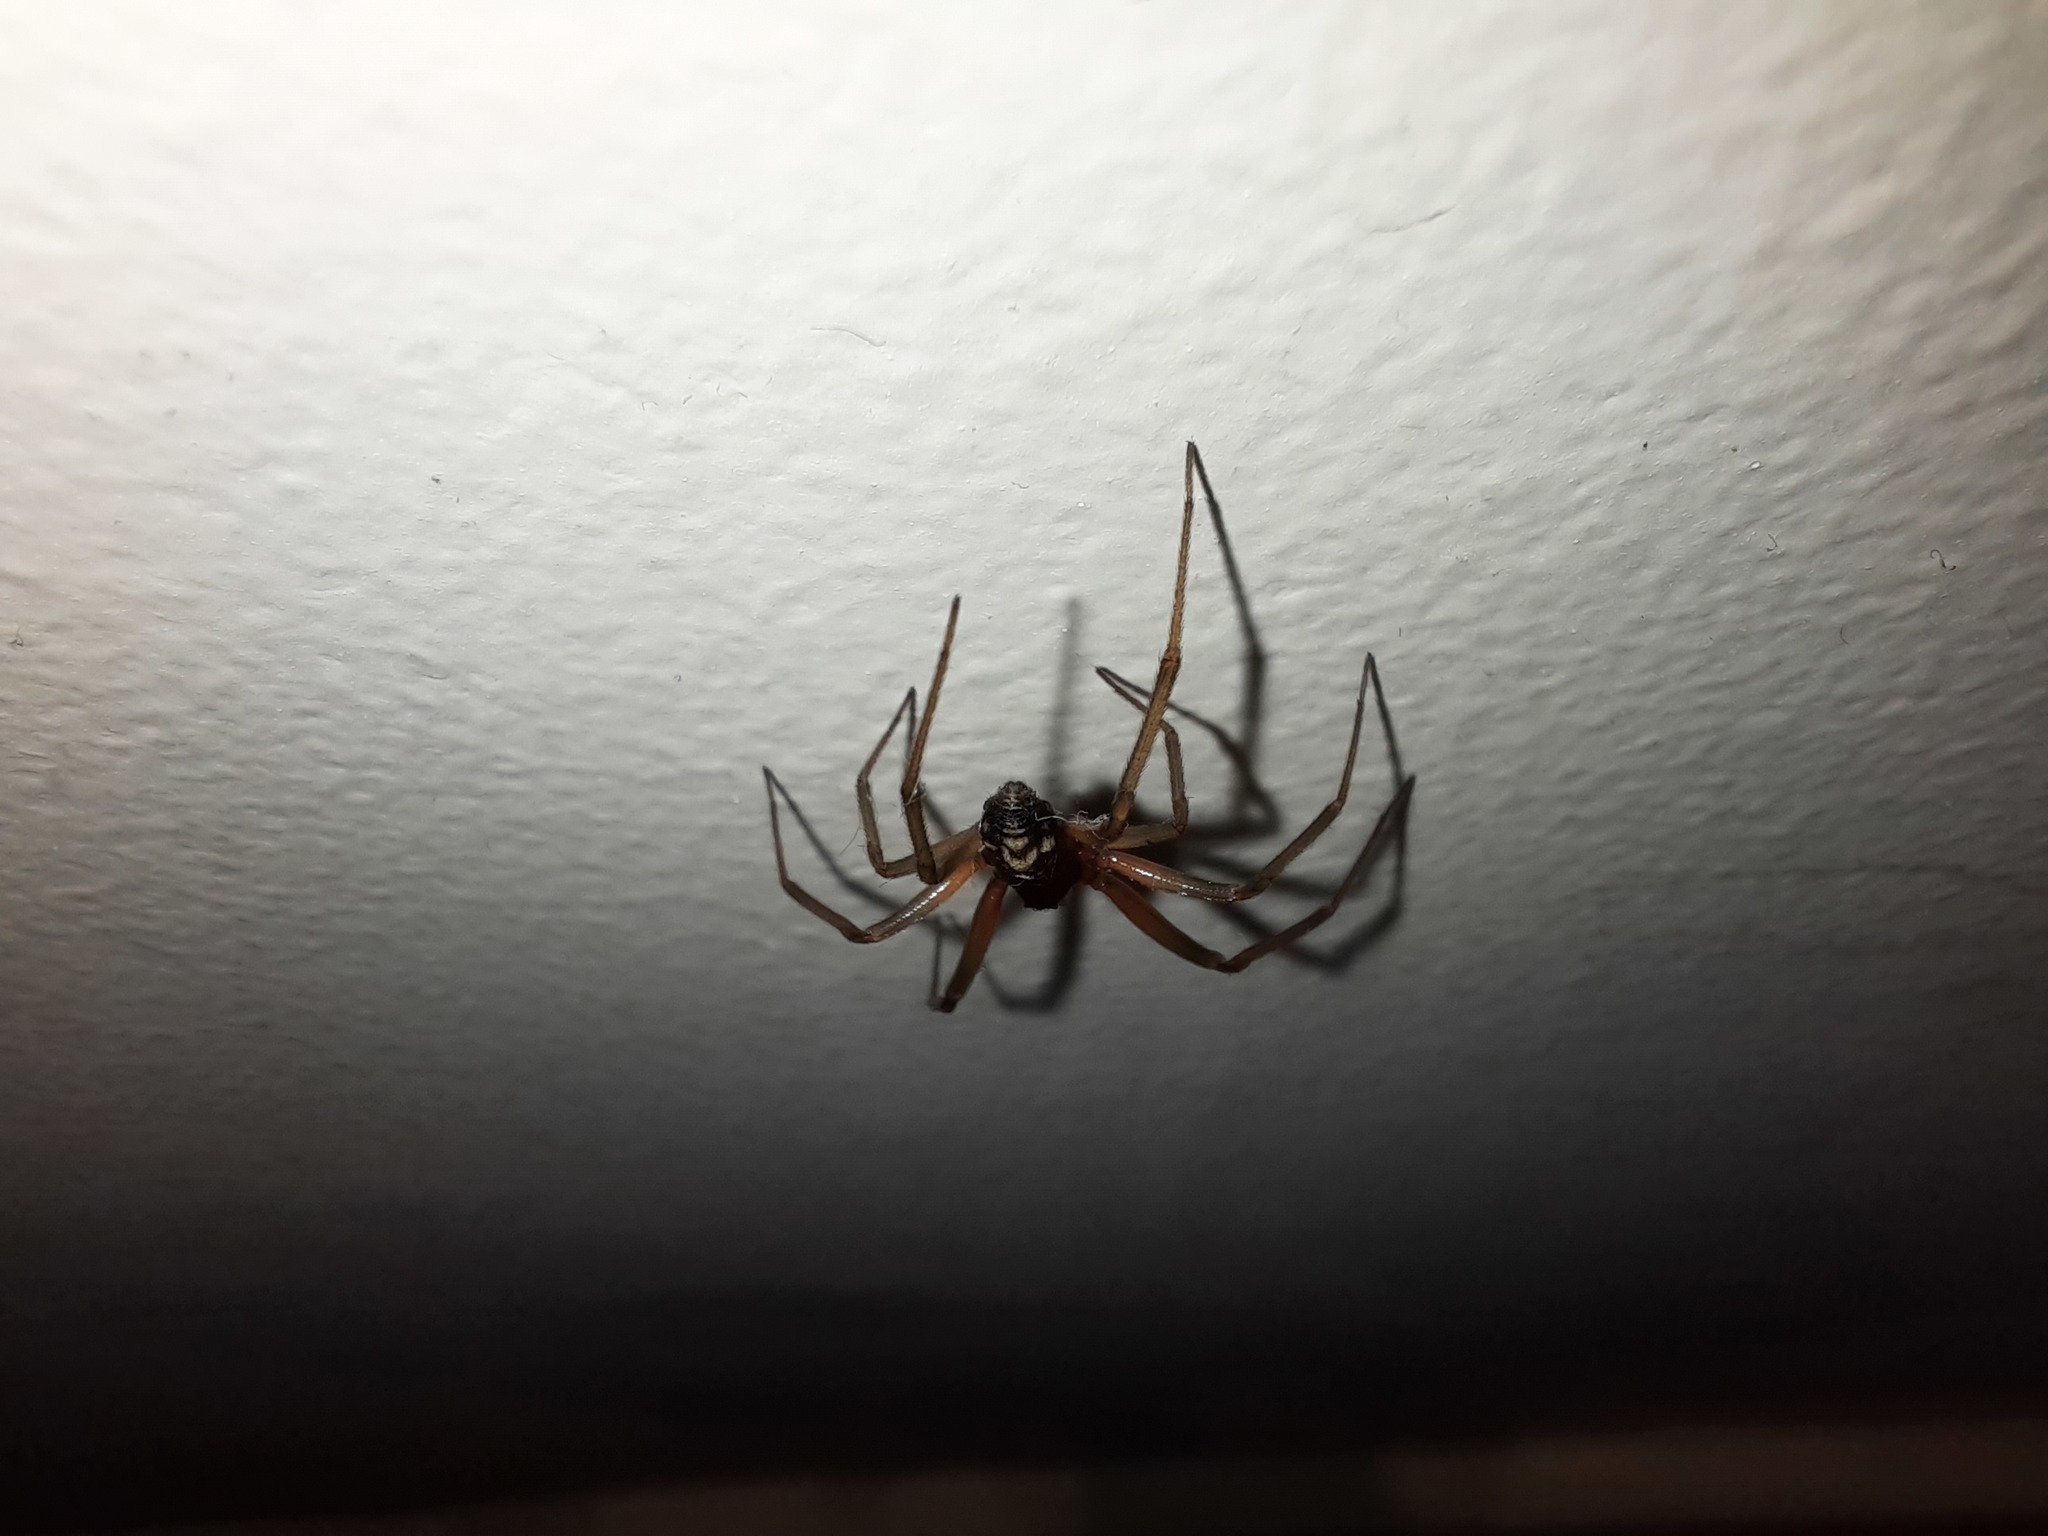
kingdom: Animalia
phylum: Arthropoda
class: Arachnida
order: Araneae
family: Theridiidae
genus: Steatoda
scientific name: Steatoda grossa
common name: False black widow
